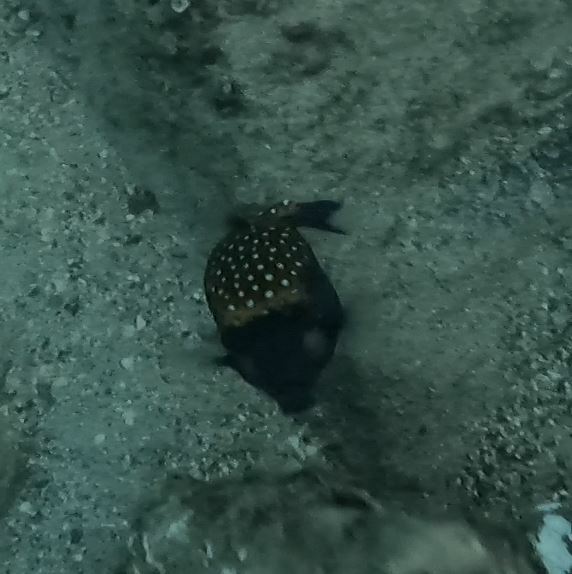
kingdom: Animalia
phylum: Chordata
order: Tetraodontiformes
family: Ostraciidae
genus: Ostracion
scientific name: Ostracion meleagris
